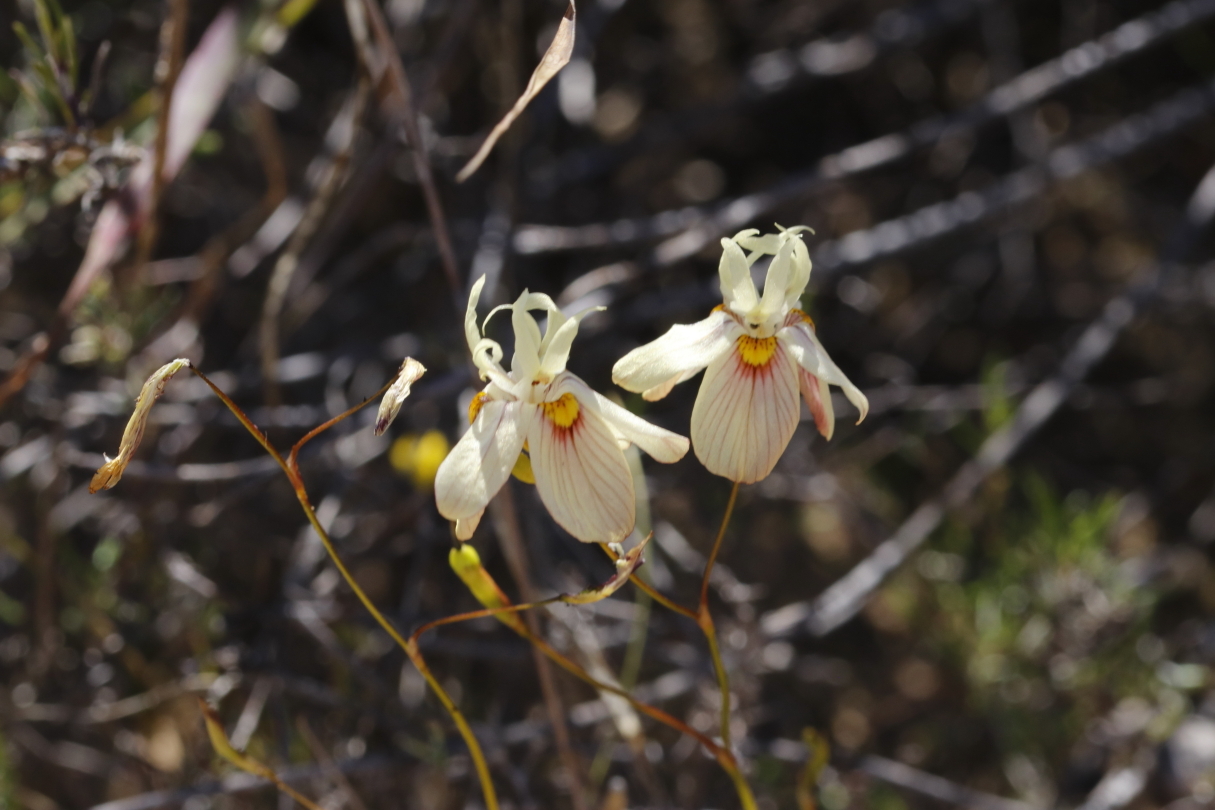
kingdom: Plantae
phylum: Tracheophyta
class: Liliopsida
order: Asparagales
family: Iridaceae
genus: Moraea
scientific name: Moraea gawleri
